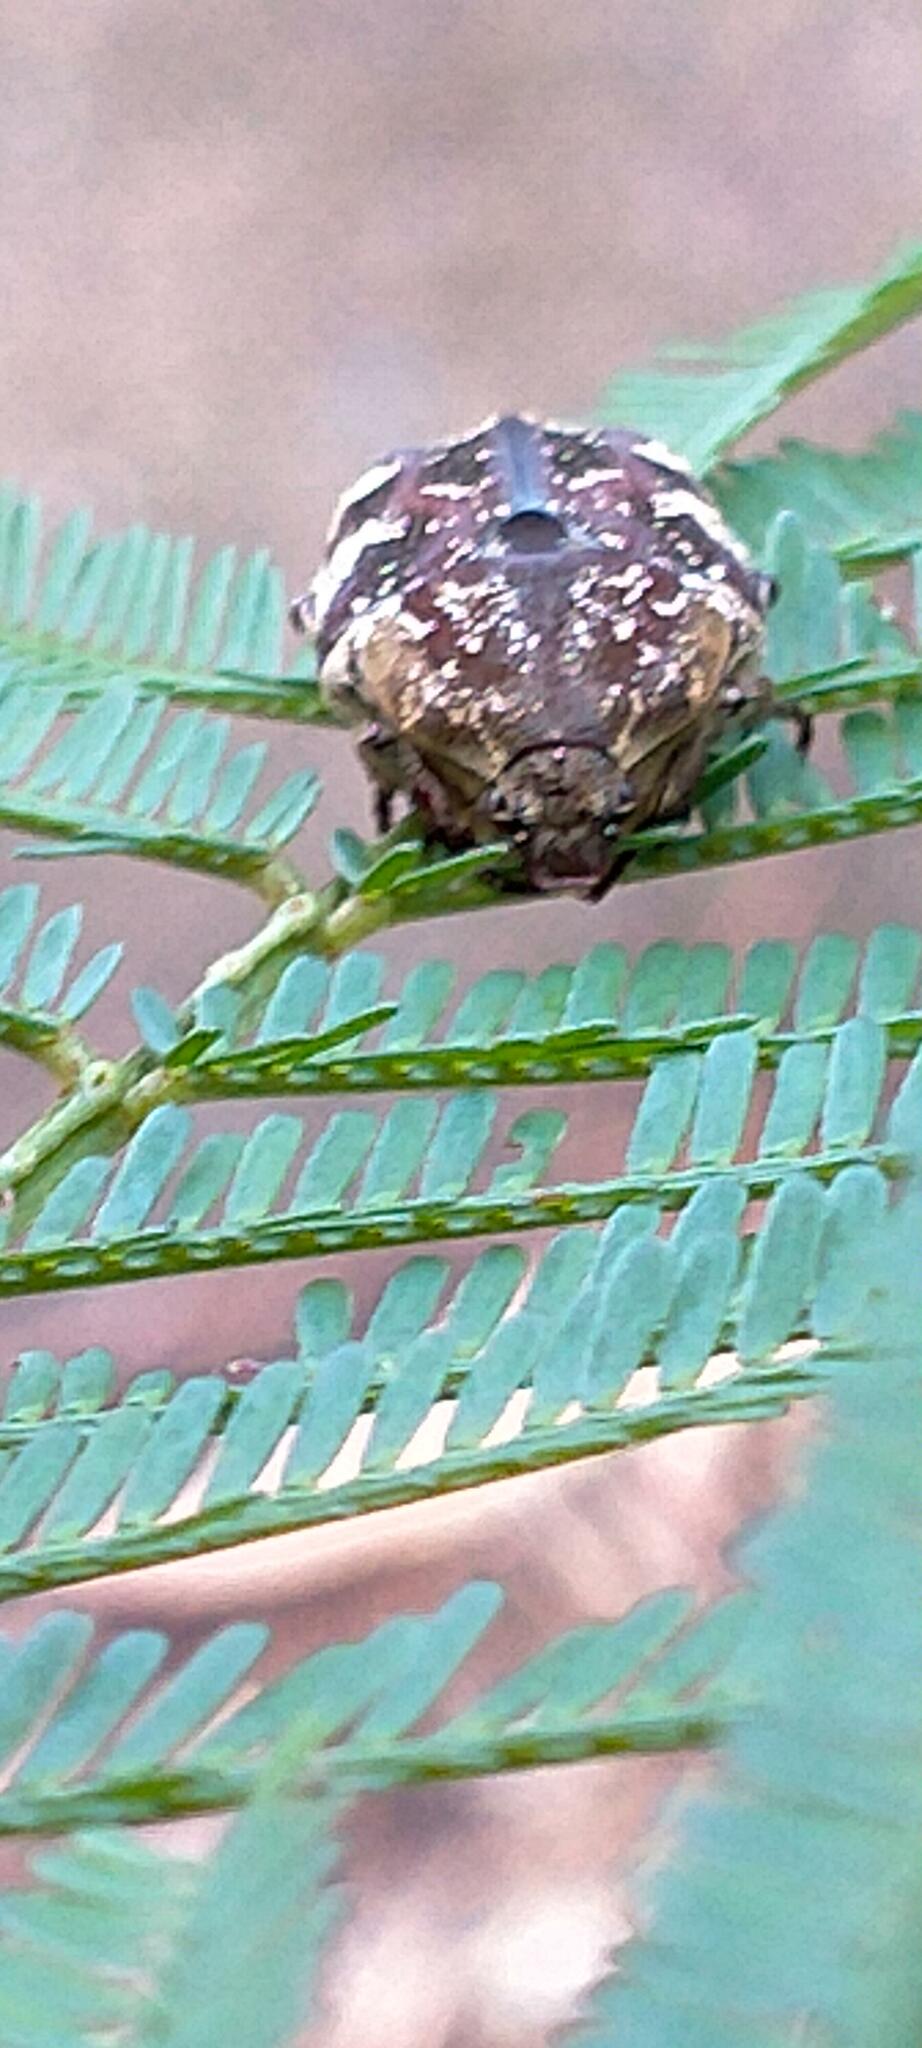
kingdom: Animalia
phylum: Arthropoda
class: Insecta
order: Coleoptera
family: Scarabaeidae
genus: Protaetia
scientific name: Protaetia fusca
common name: Mango flower beetle
